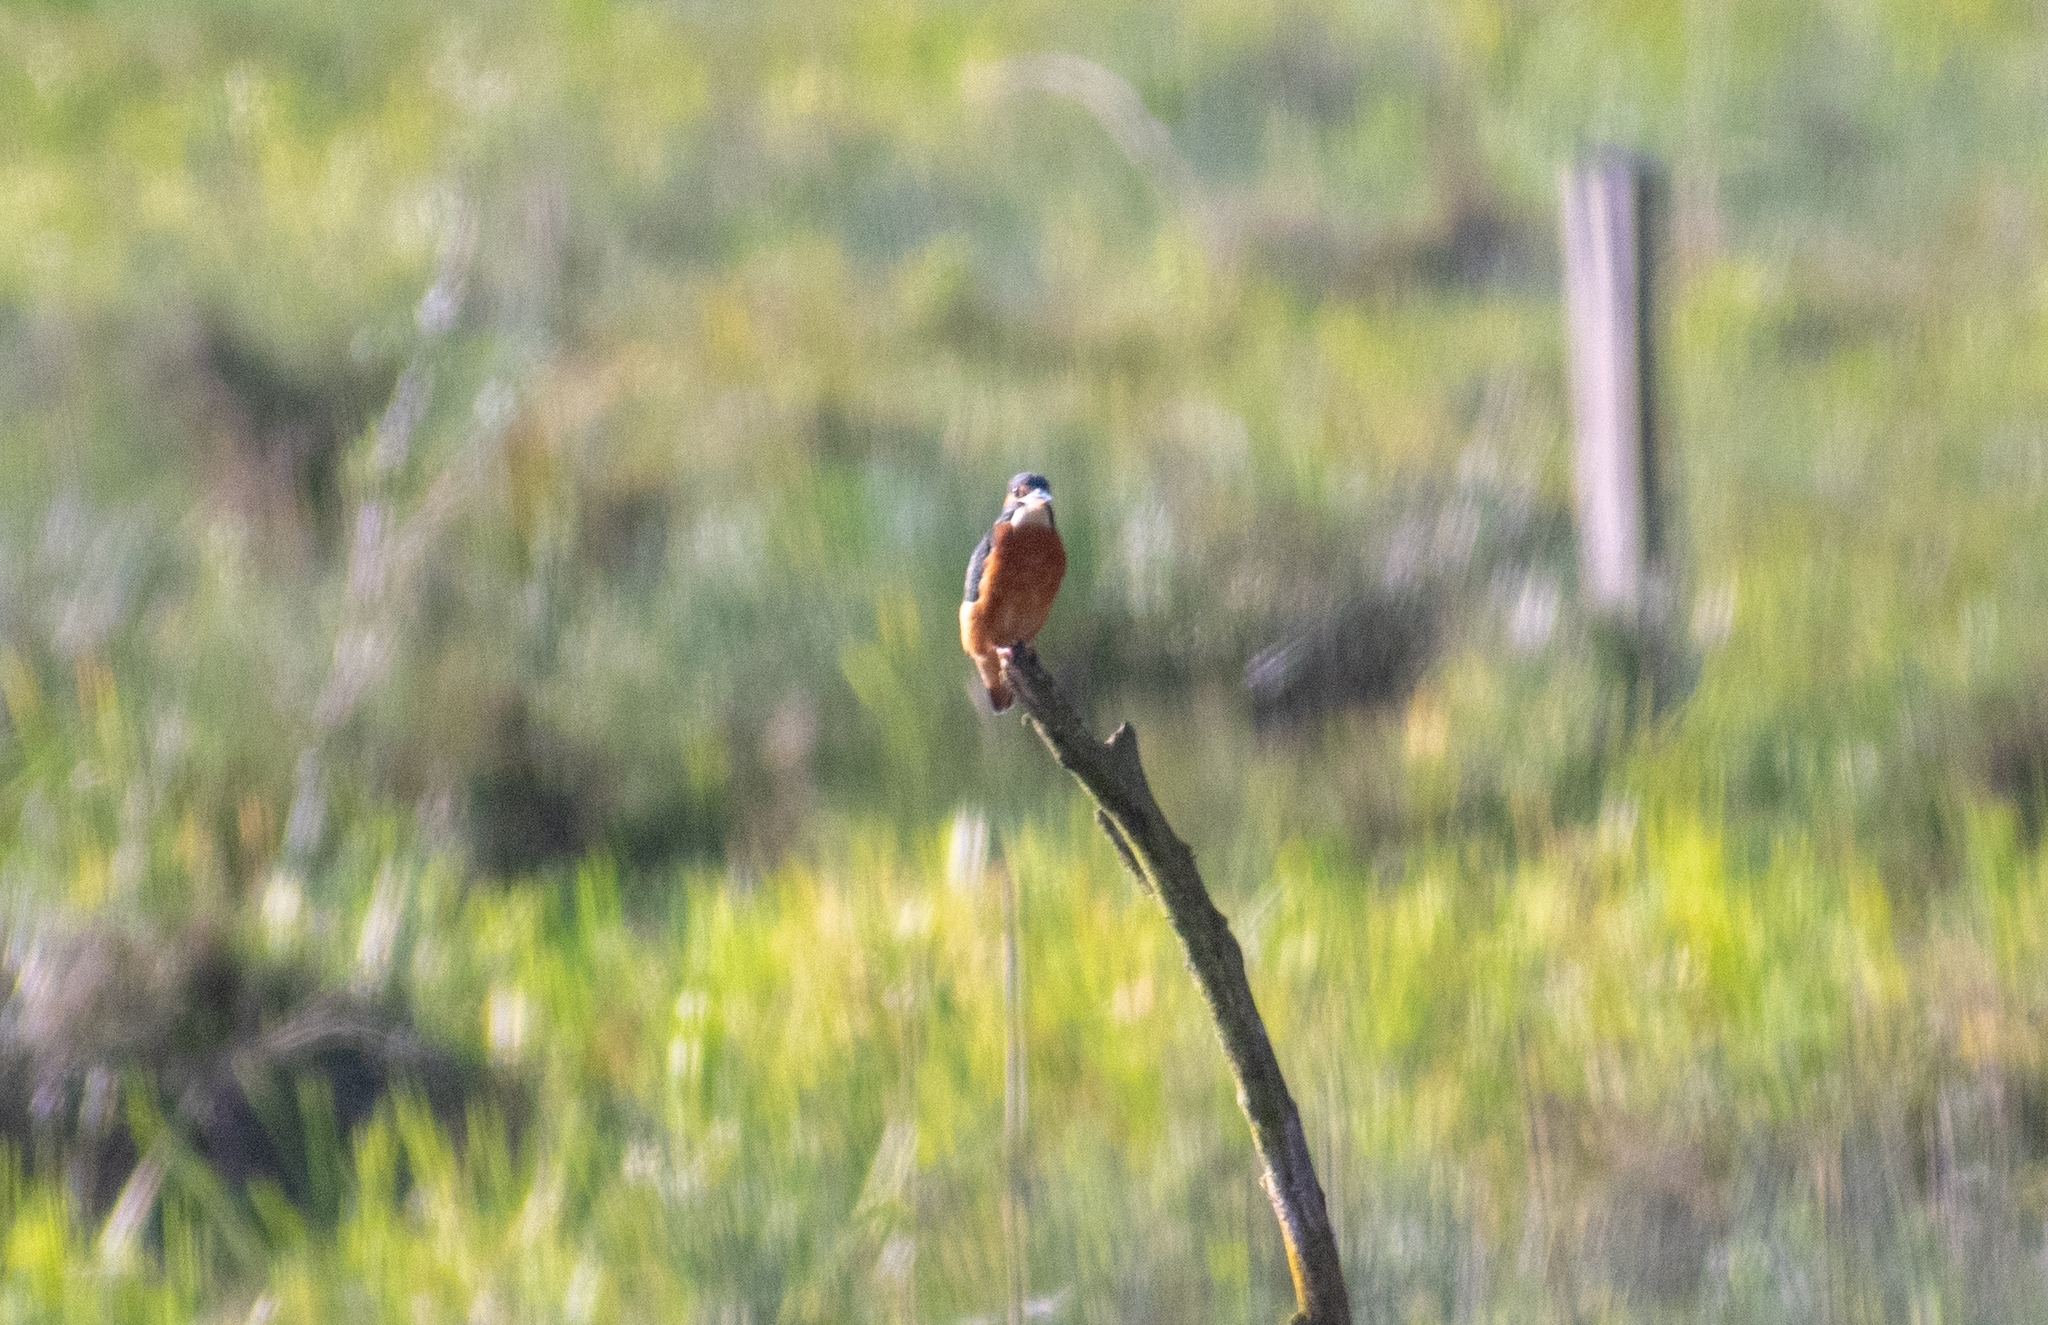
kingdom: Animalia
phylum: Chordata
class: Aves
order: Coraciiformes
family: Alcedinidae
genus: Alcedo
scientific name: Alcedo atthis
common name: Common kingfisher
